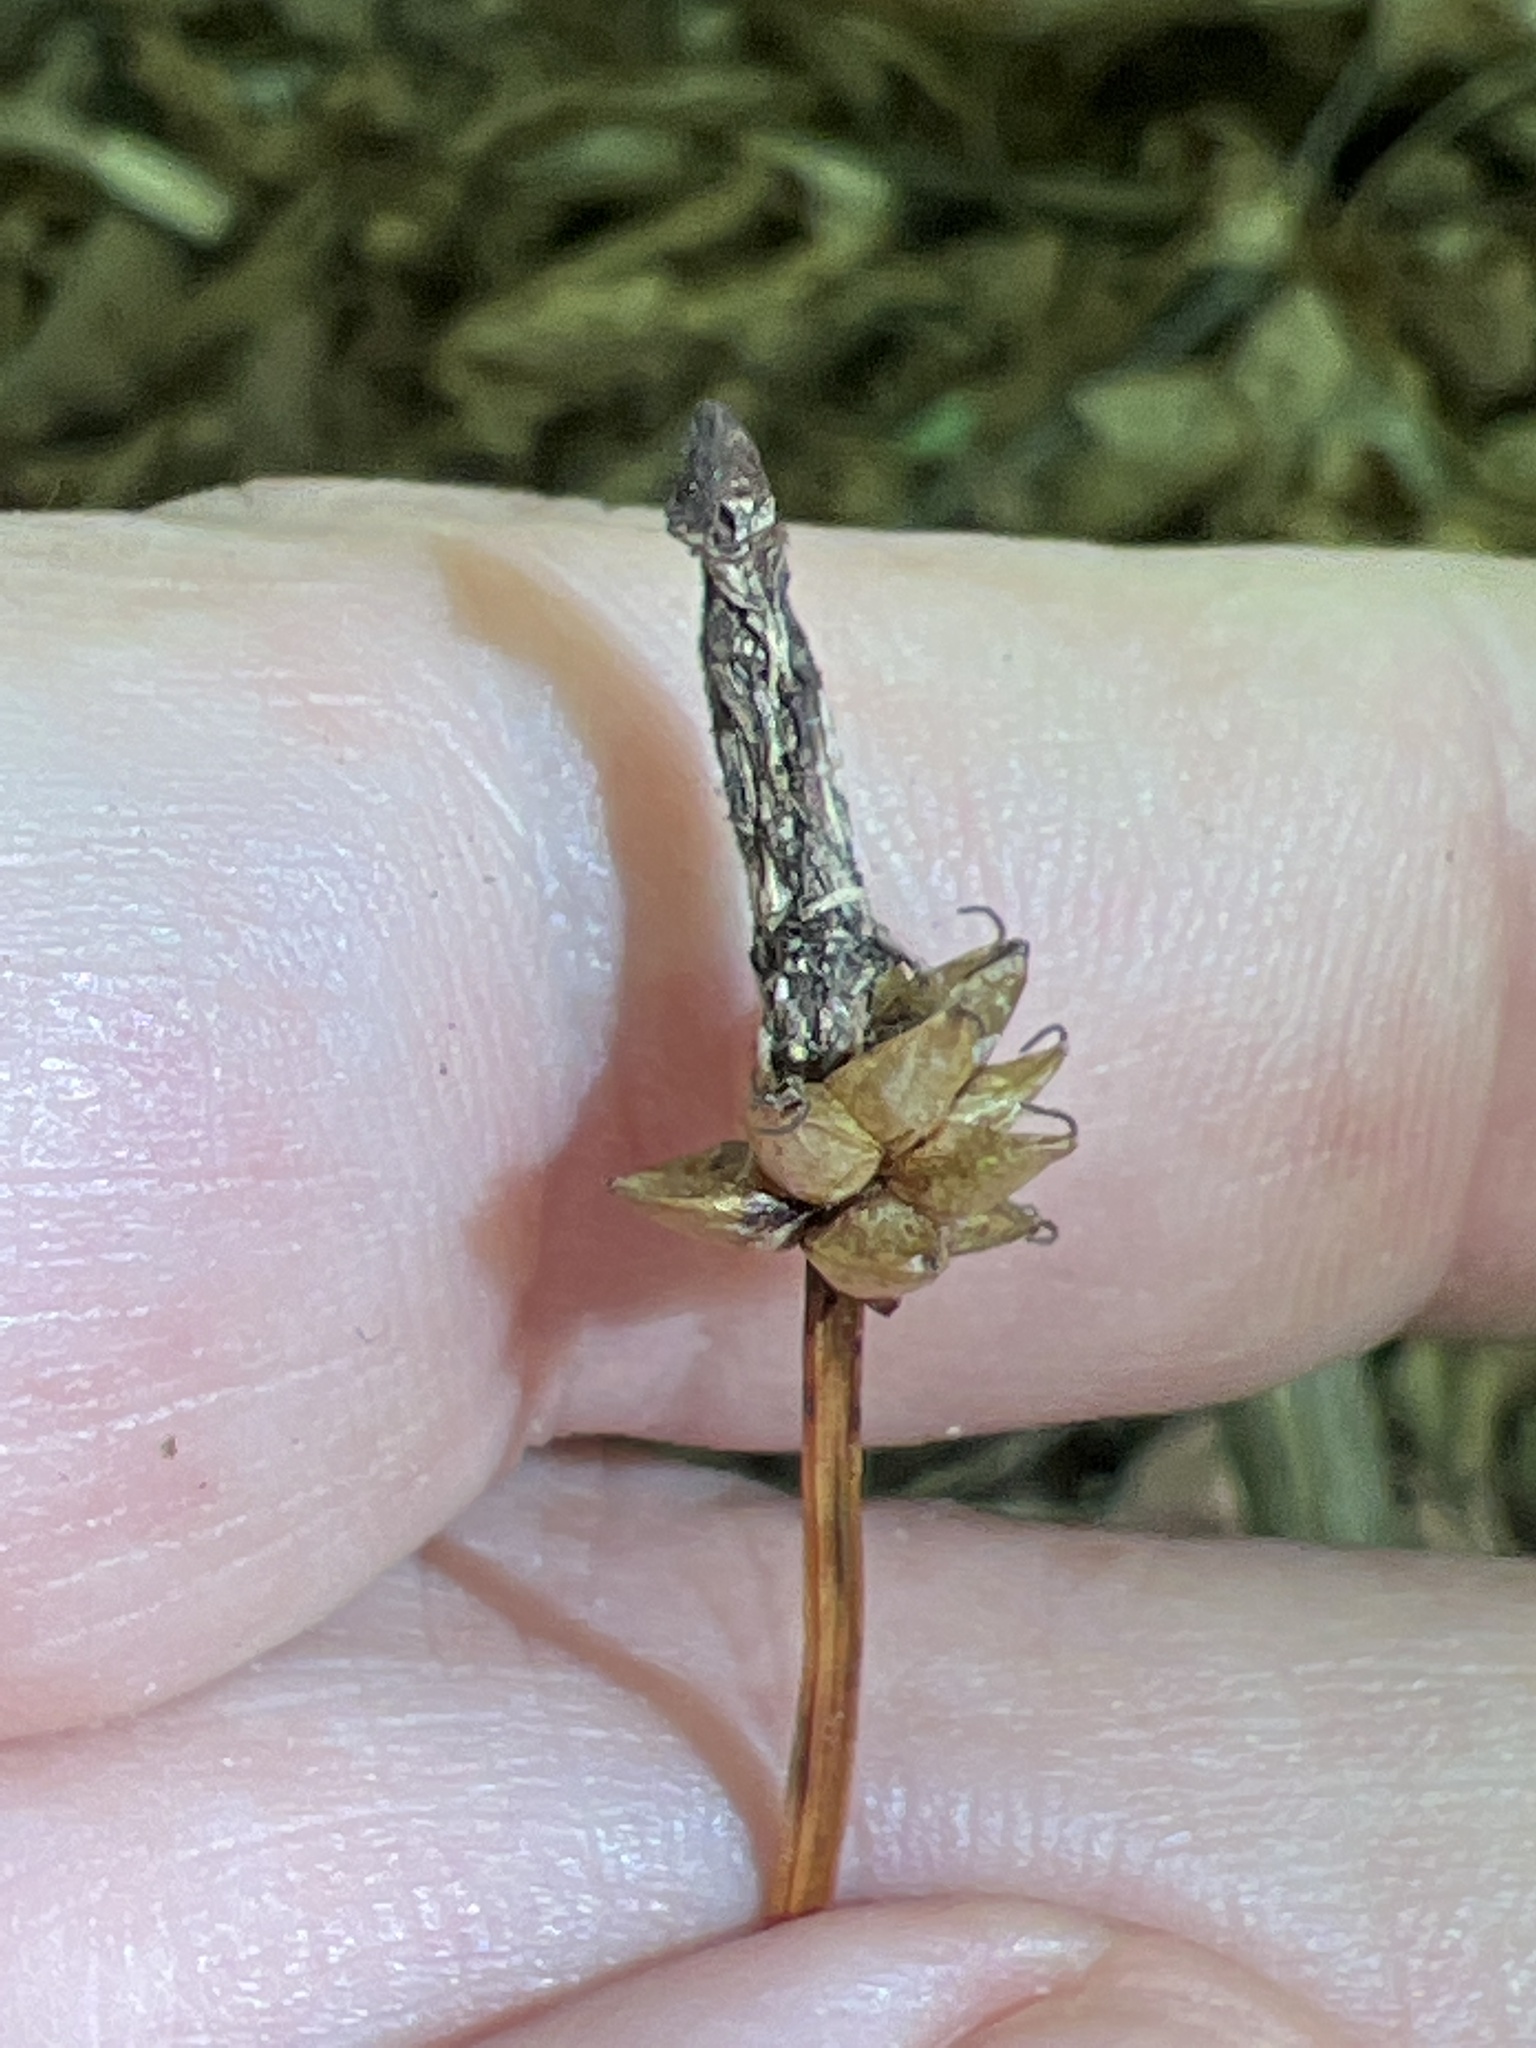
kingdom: Plantae
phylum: Tracheophyta
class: Liliopsida
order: Poales
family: Cyperaceae
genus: Carex
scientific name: Carex fraseriana
